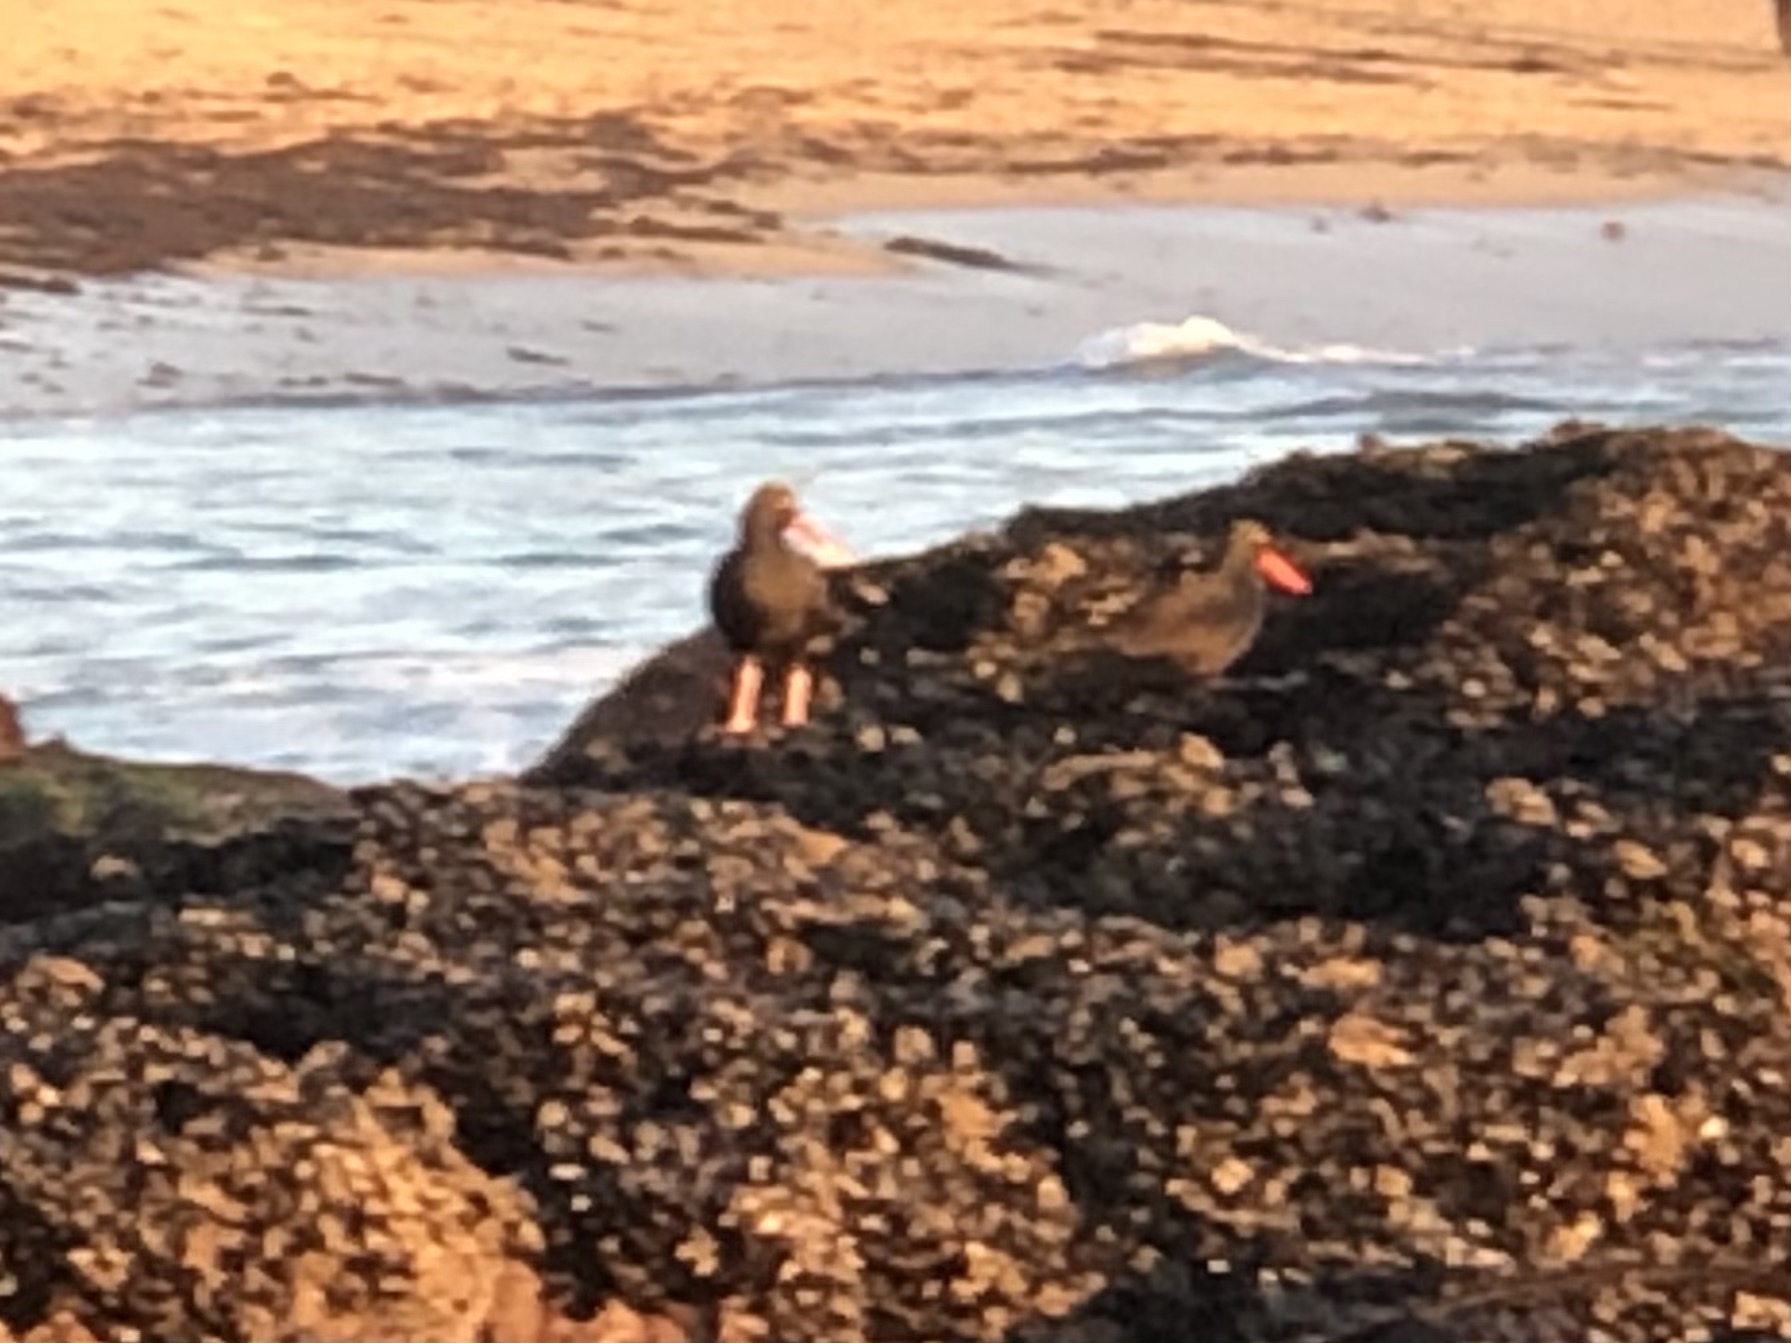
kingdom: Animalia
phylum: Chordata
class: Aves
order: Charadriiformes
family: Haematopodidae
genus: Haematopus
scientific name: Haematopus bachmani
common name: Black oystercatcher
